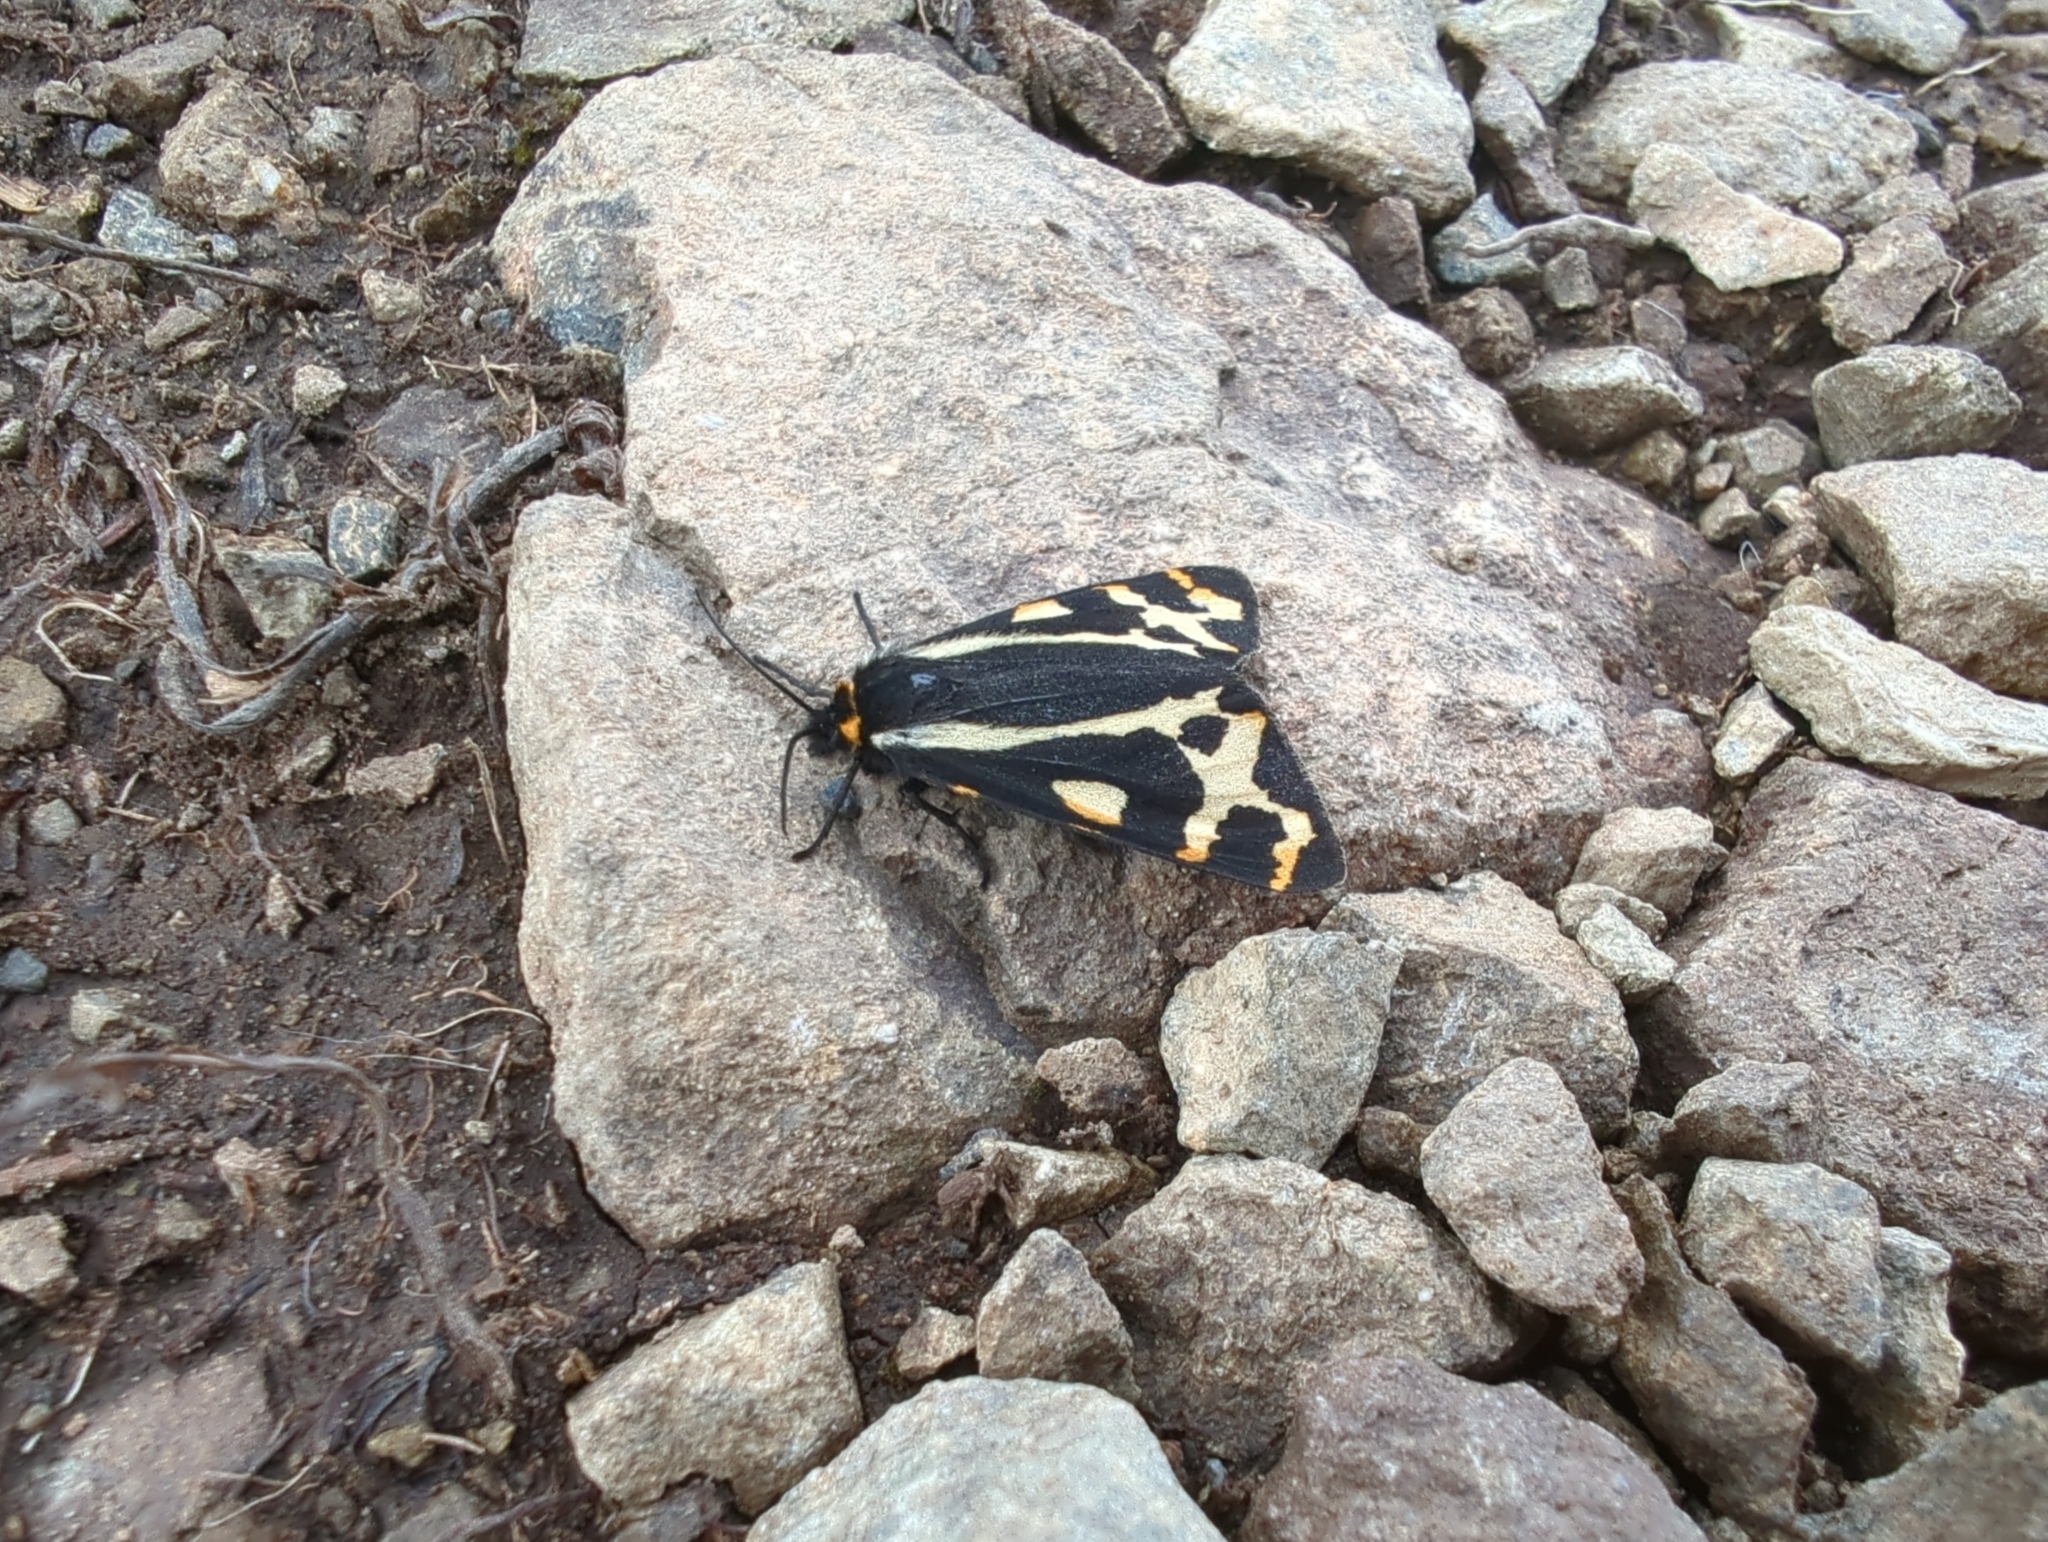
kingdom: Animalia
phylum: Arthropoda
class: Insecta
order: Lepidoptera
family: Erebidae
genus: Parasemia
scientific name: Parasemia plantaginis
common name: Wood tiger
